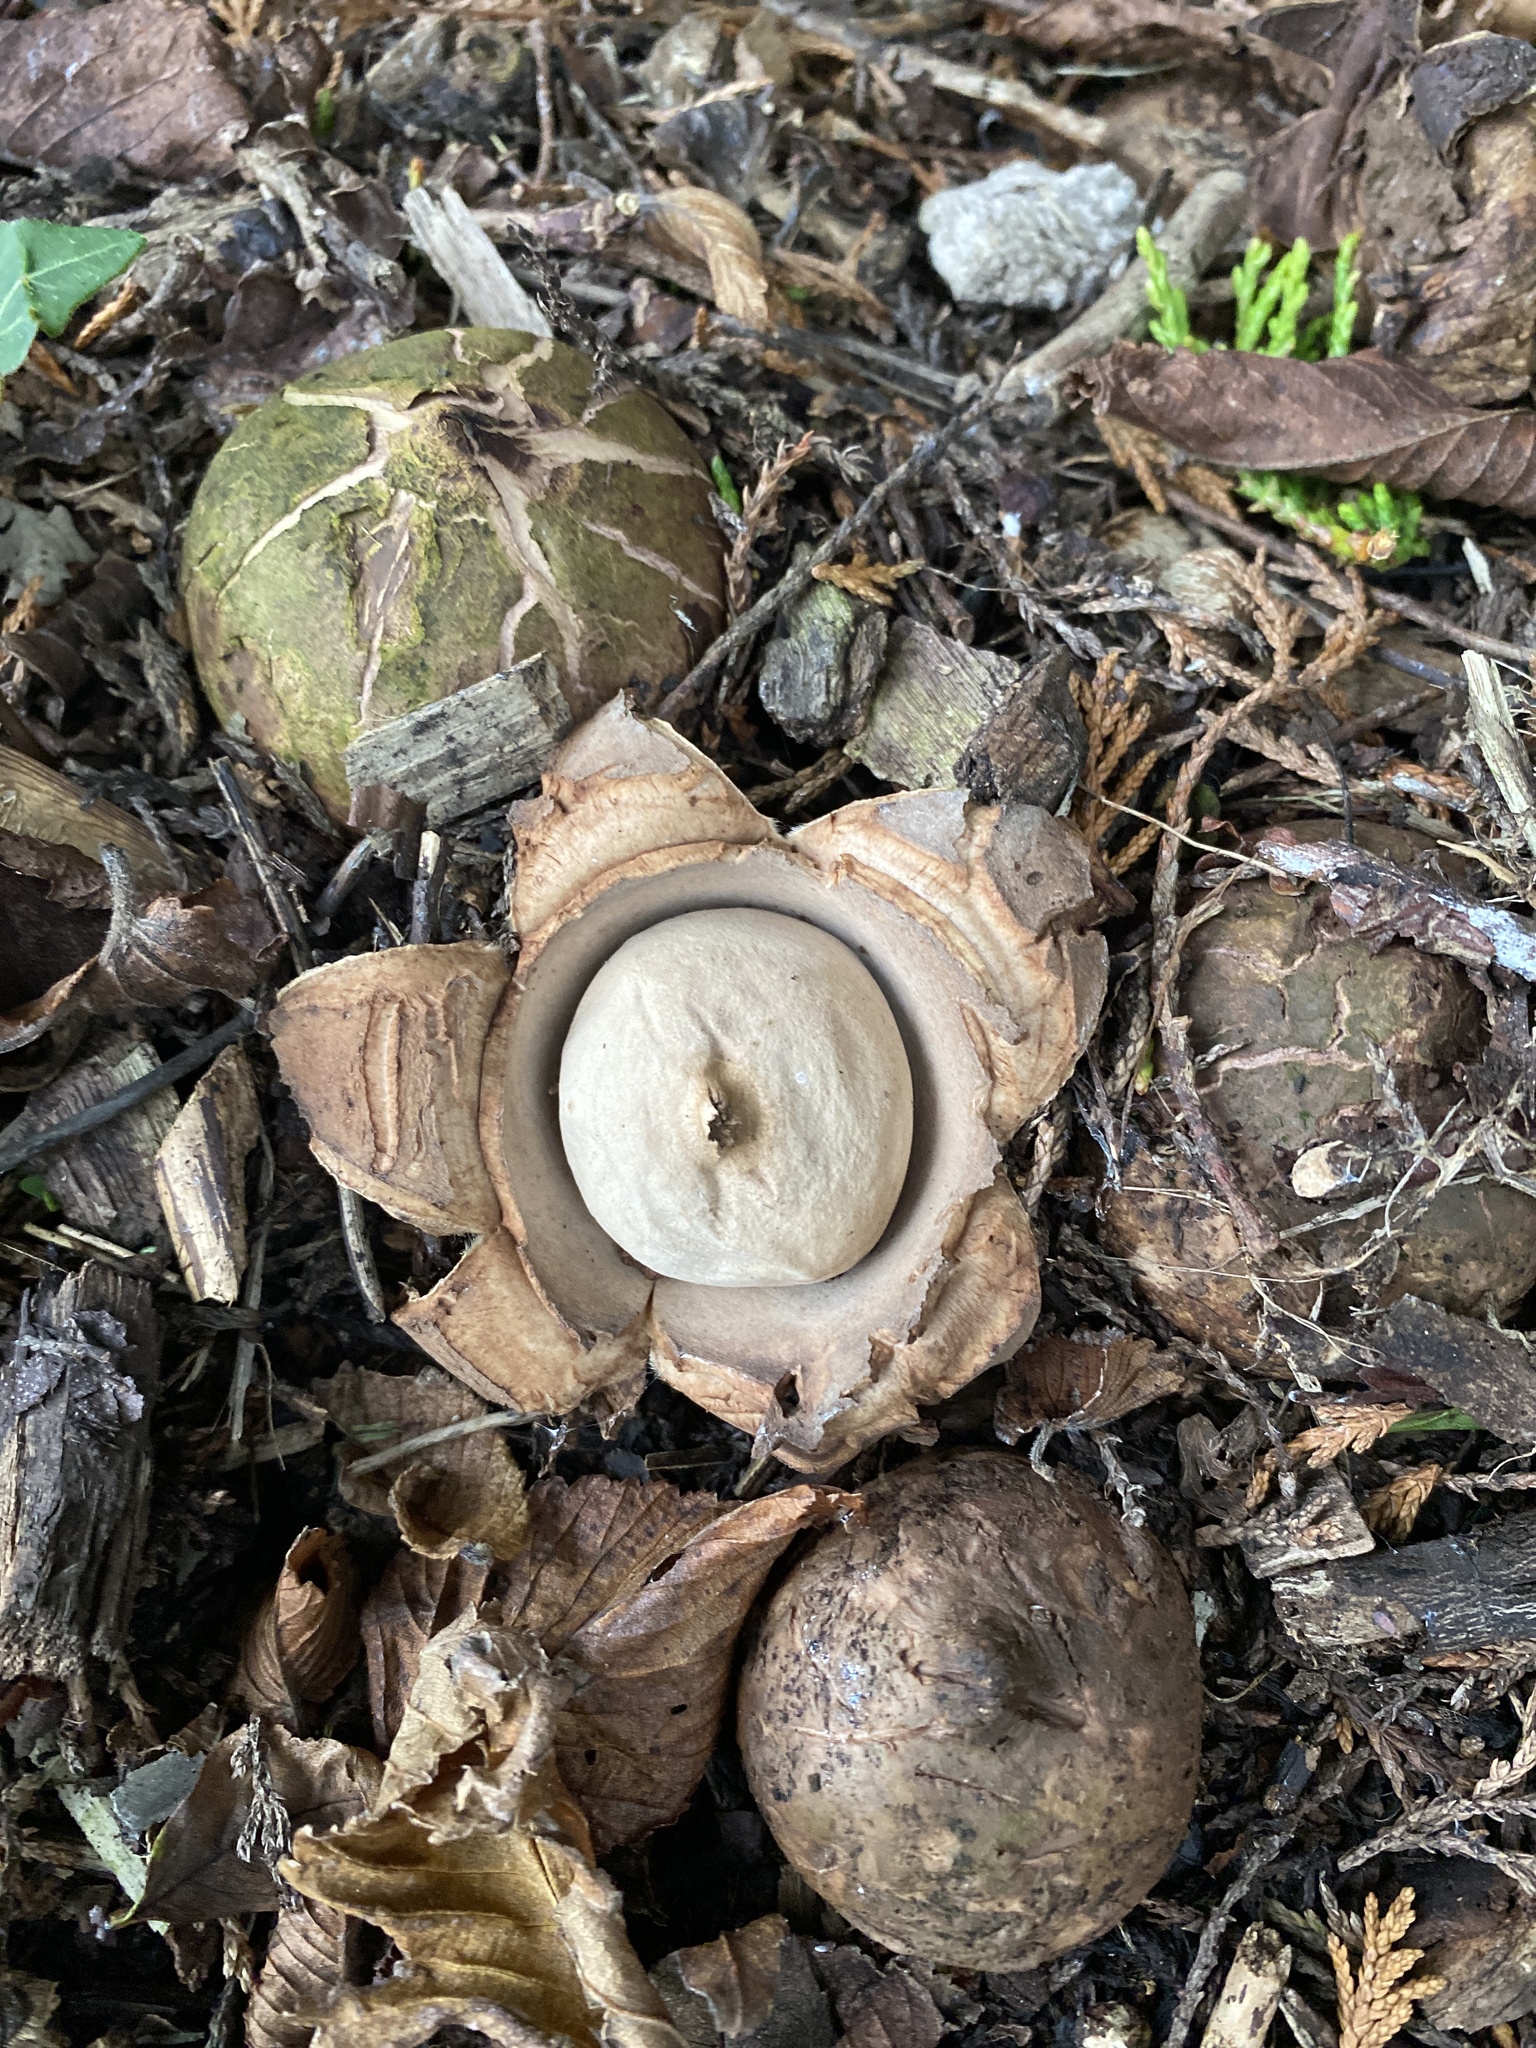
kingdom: Fungi
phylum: Basidiomycota
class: Agaricomycetes
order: Geastrales
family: Geastraceae
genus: Geastrum
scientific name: Geastrum triplex
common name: Collared earthstar
